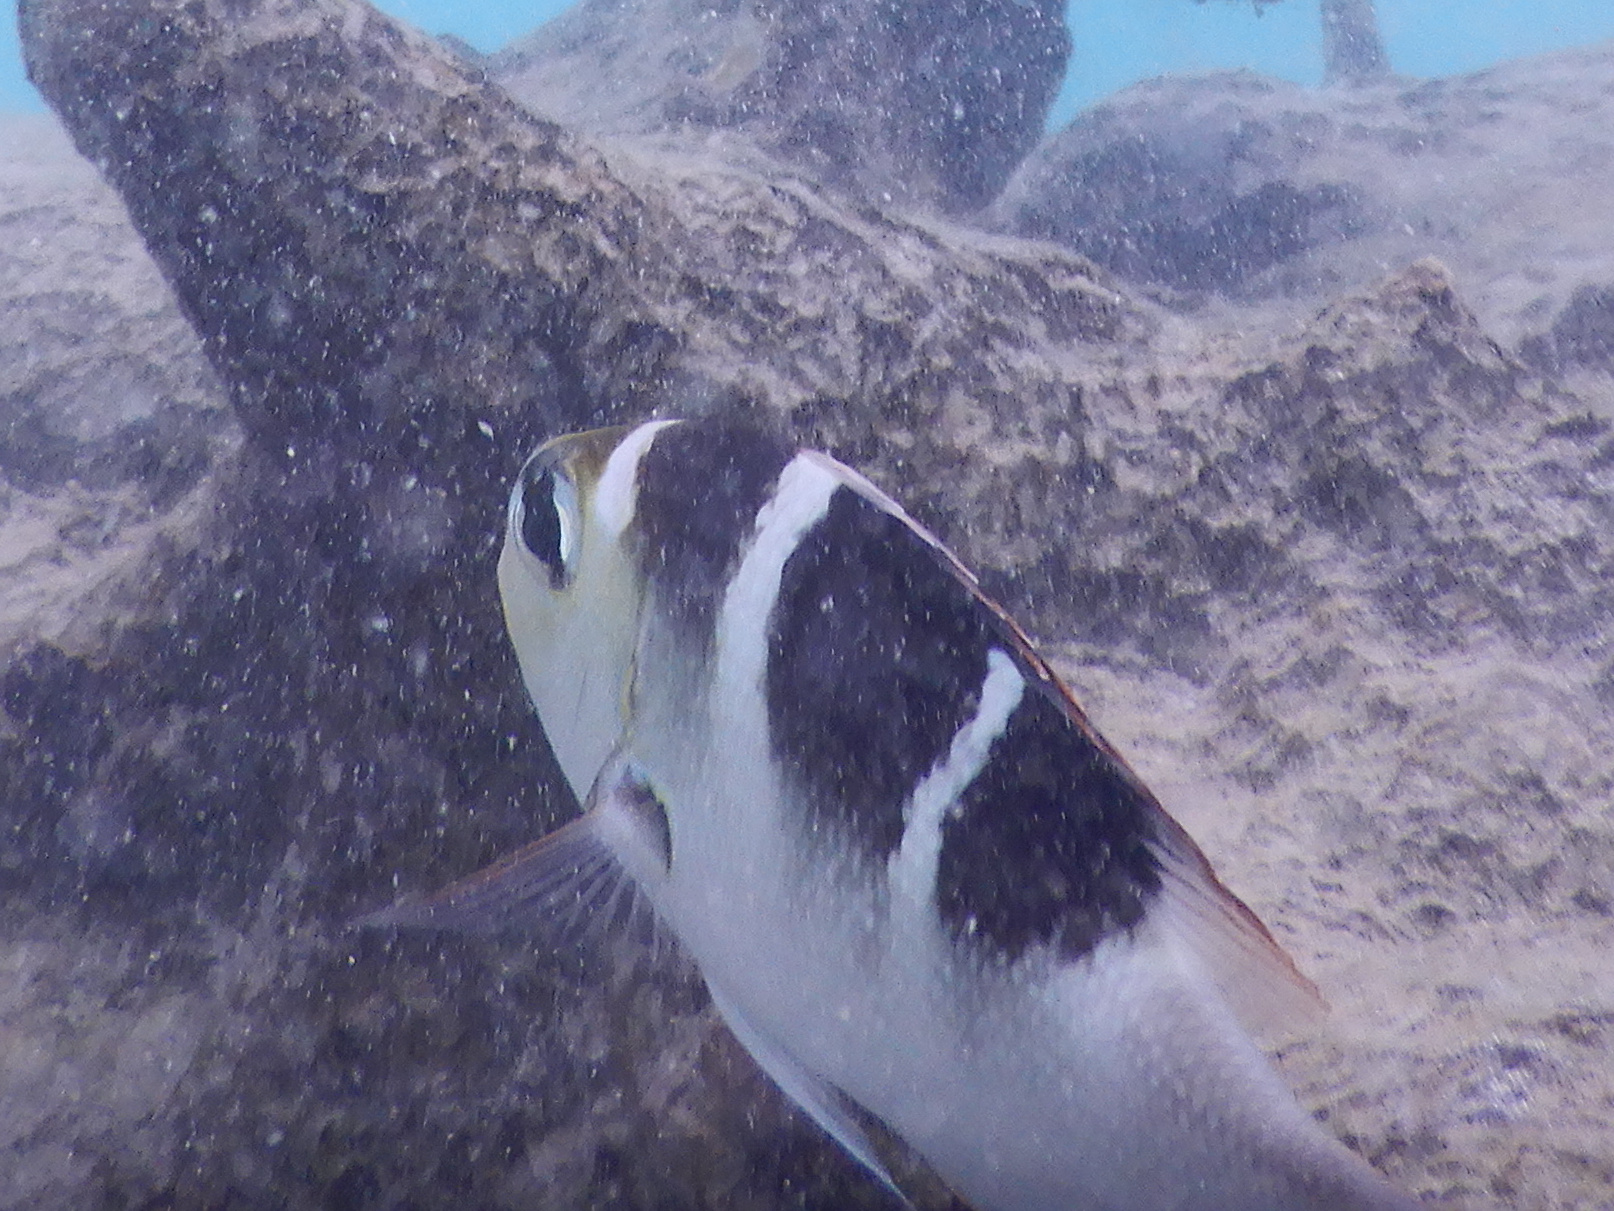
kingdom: Animalia
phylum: Chordata
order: Perciformes
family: Lethrinidae
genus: Monotaxis
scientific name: Monotaxis grandoculis
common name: Bigeye emperor
